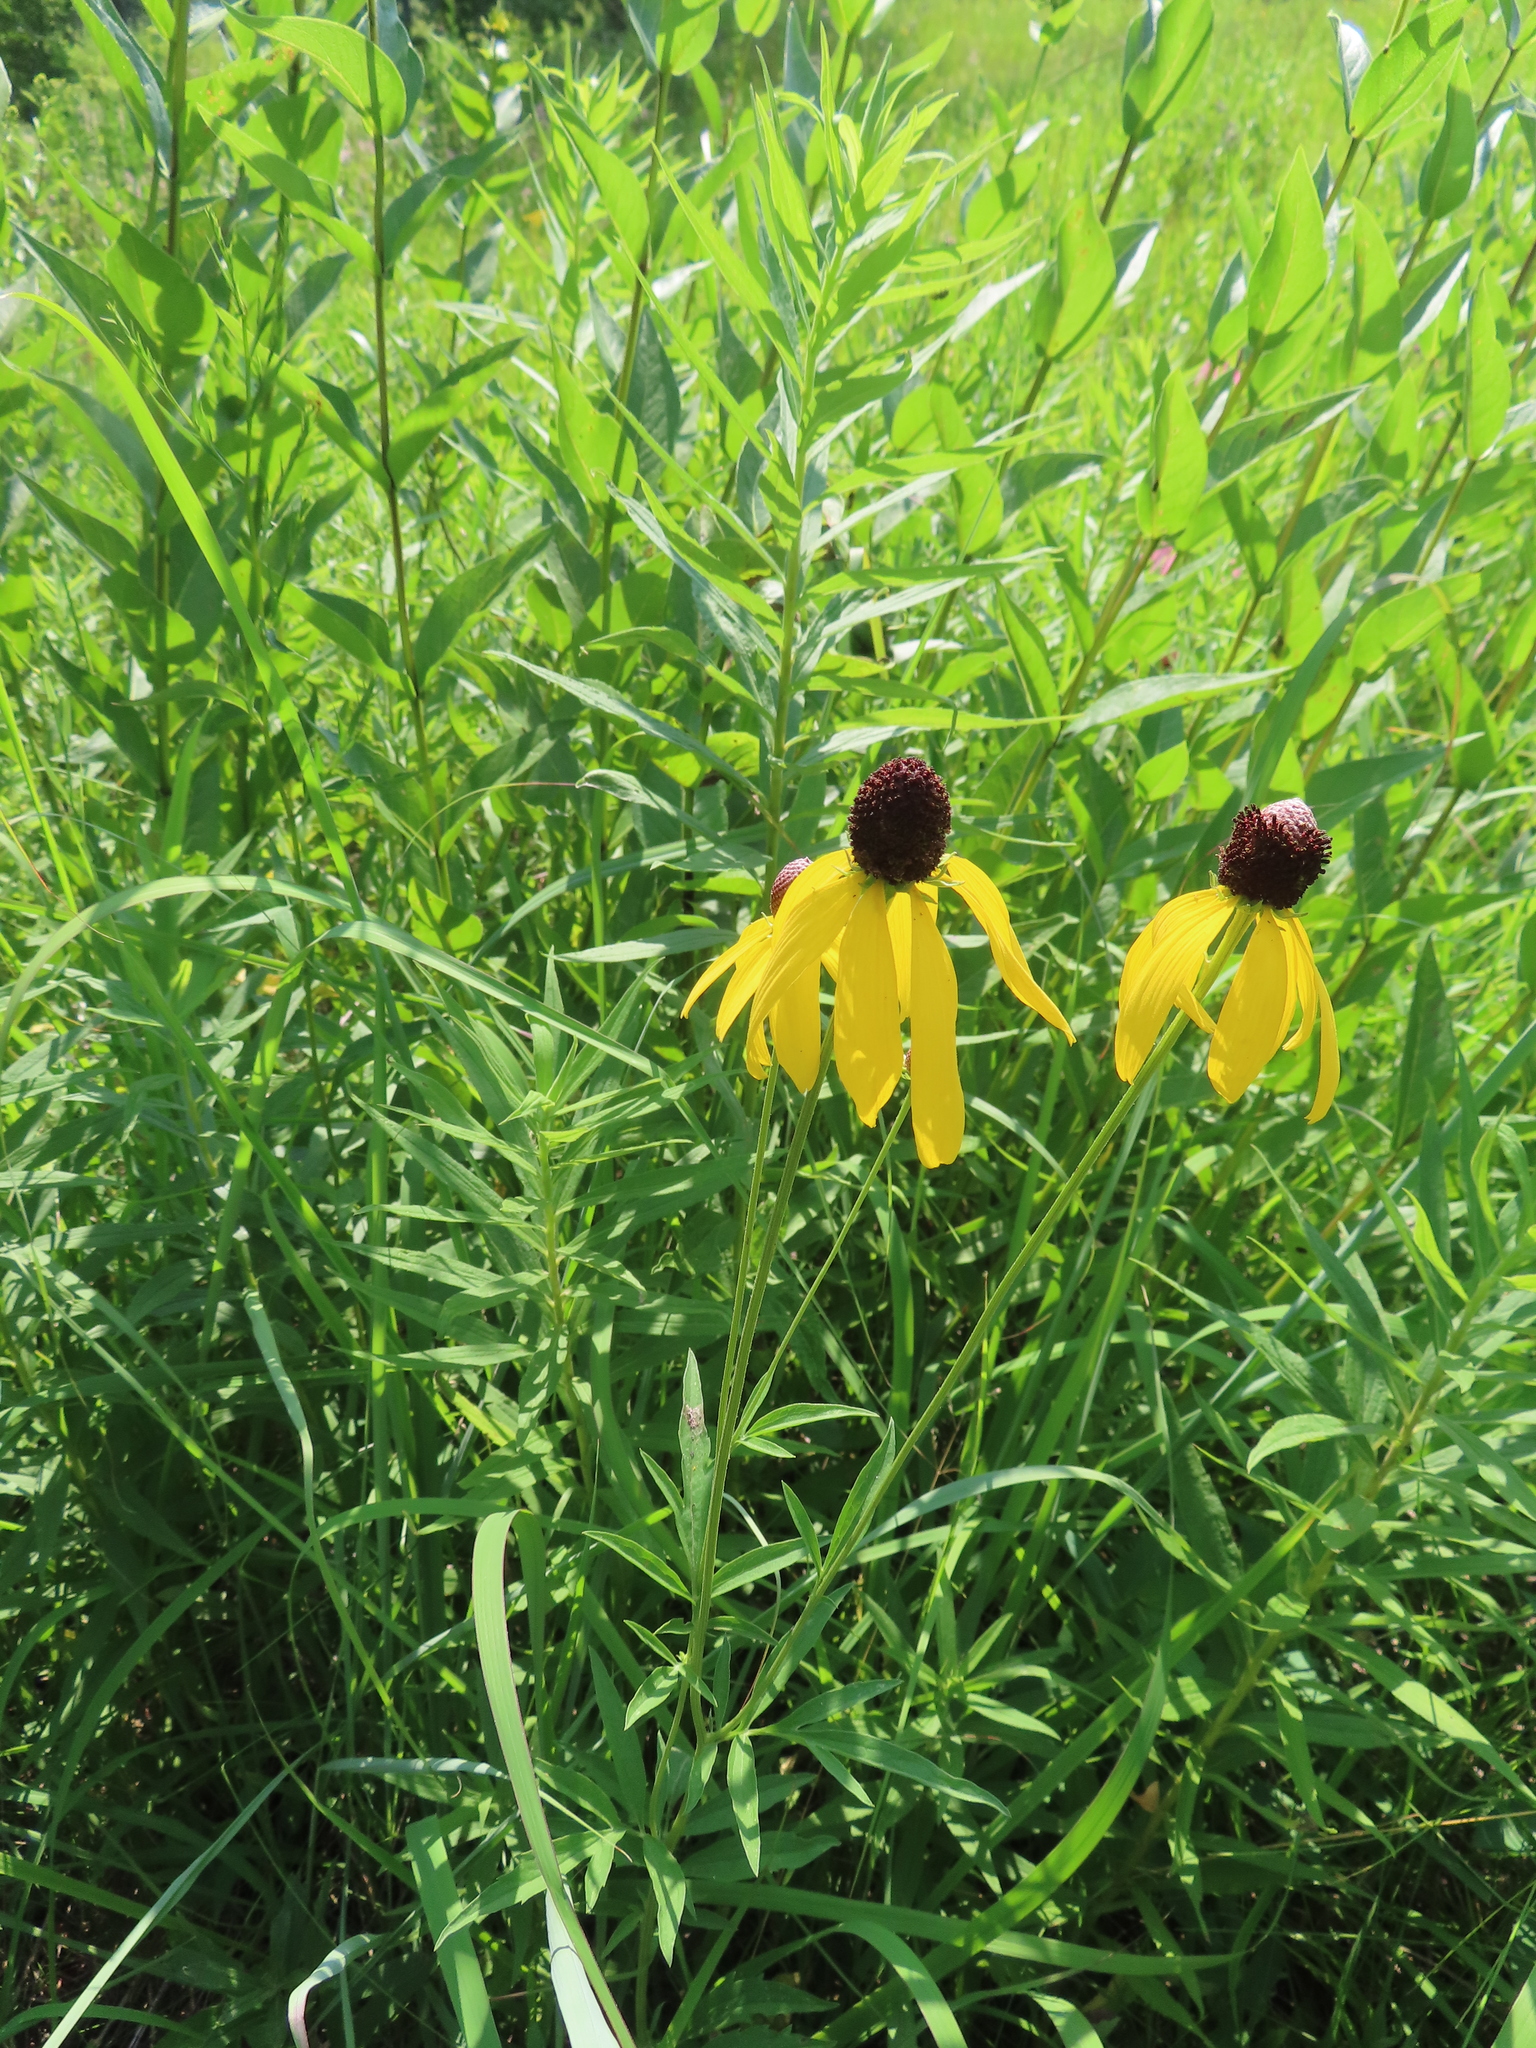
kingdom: Plantae
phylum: Tracheophyta
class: Magnoliopsida
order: Asterales
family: Asteraceae
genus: Ratibida
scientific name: Ratibida pinnata
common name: Drooping prairie-coneflower
